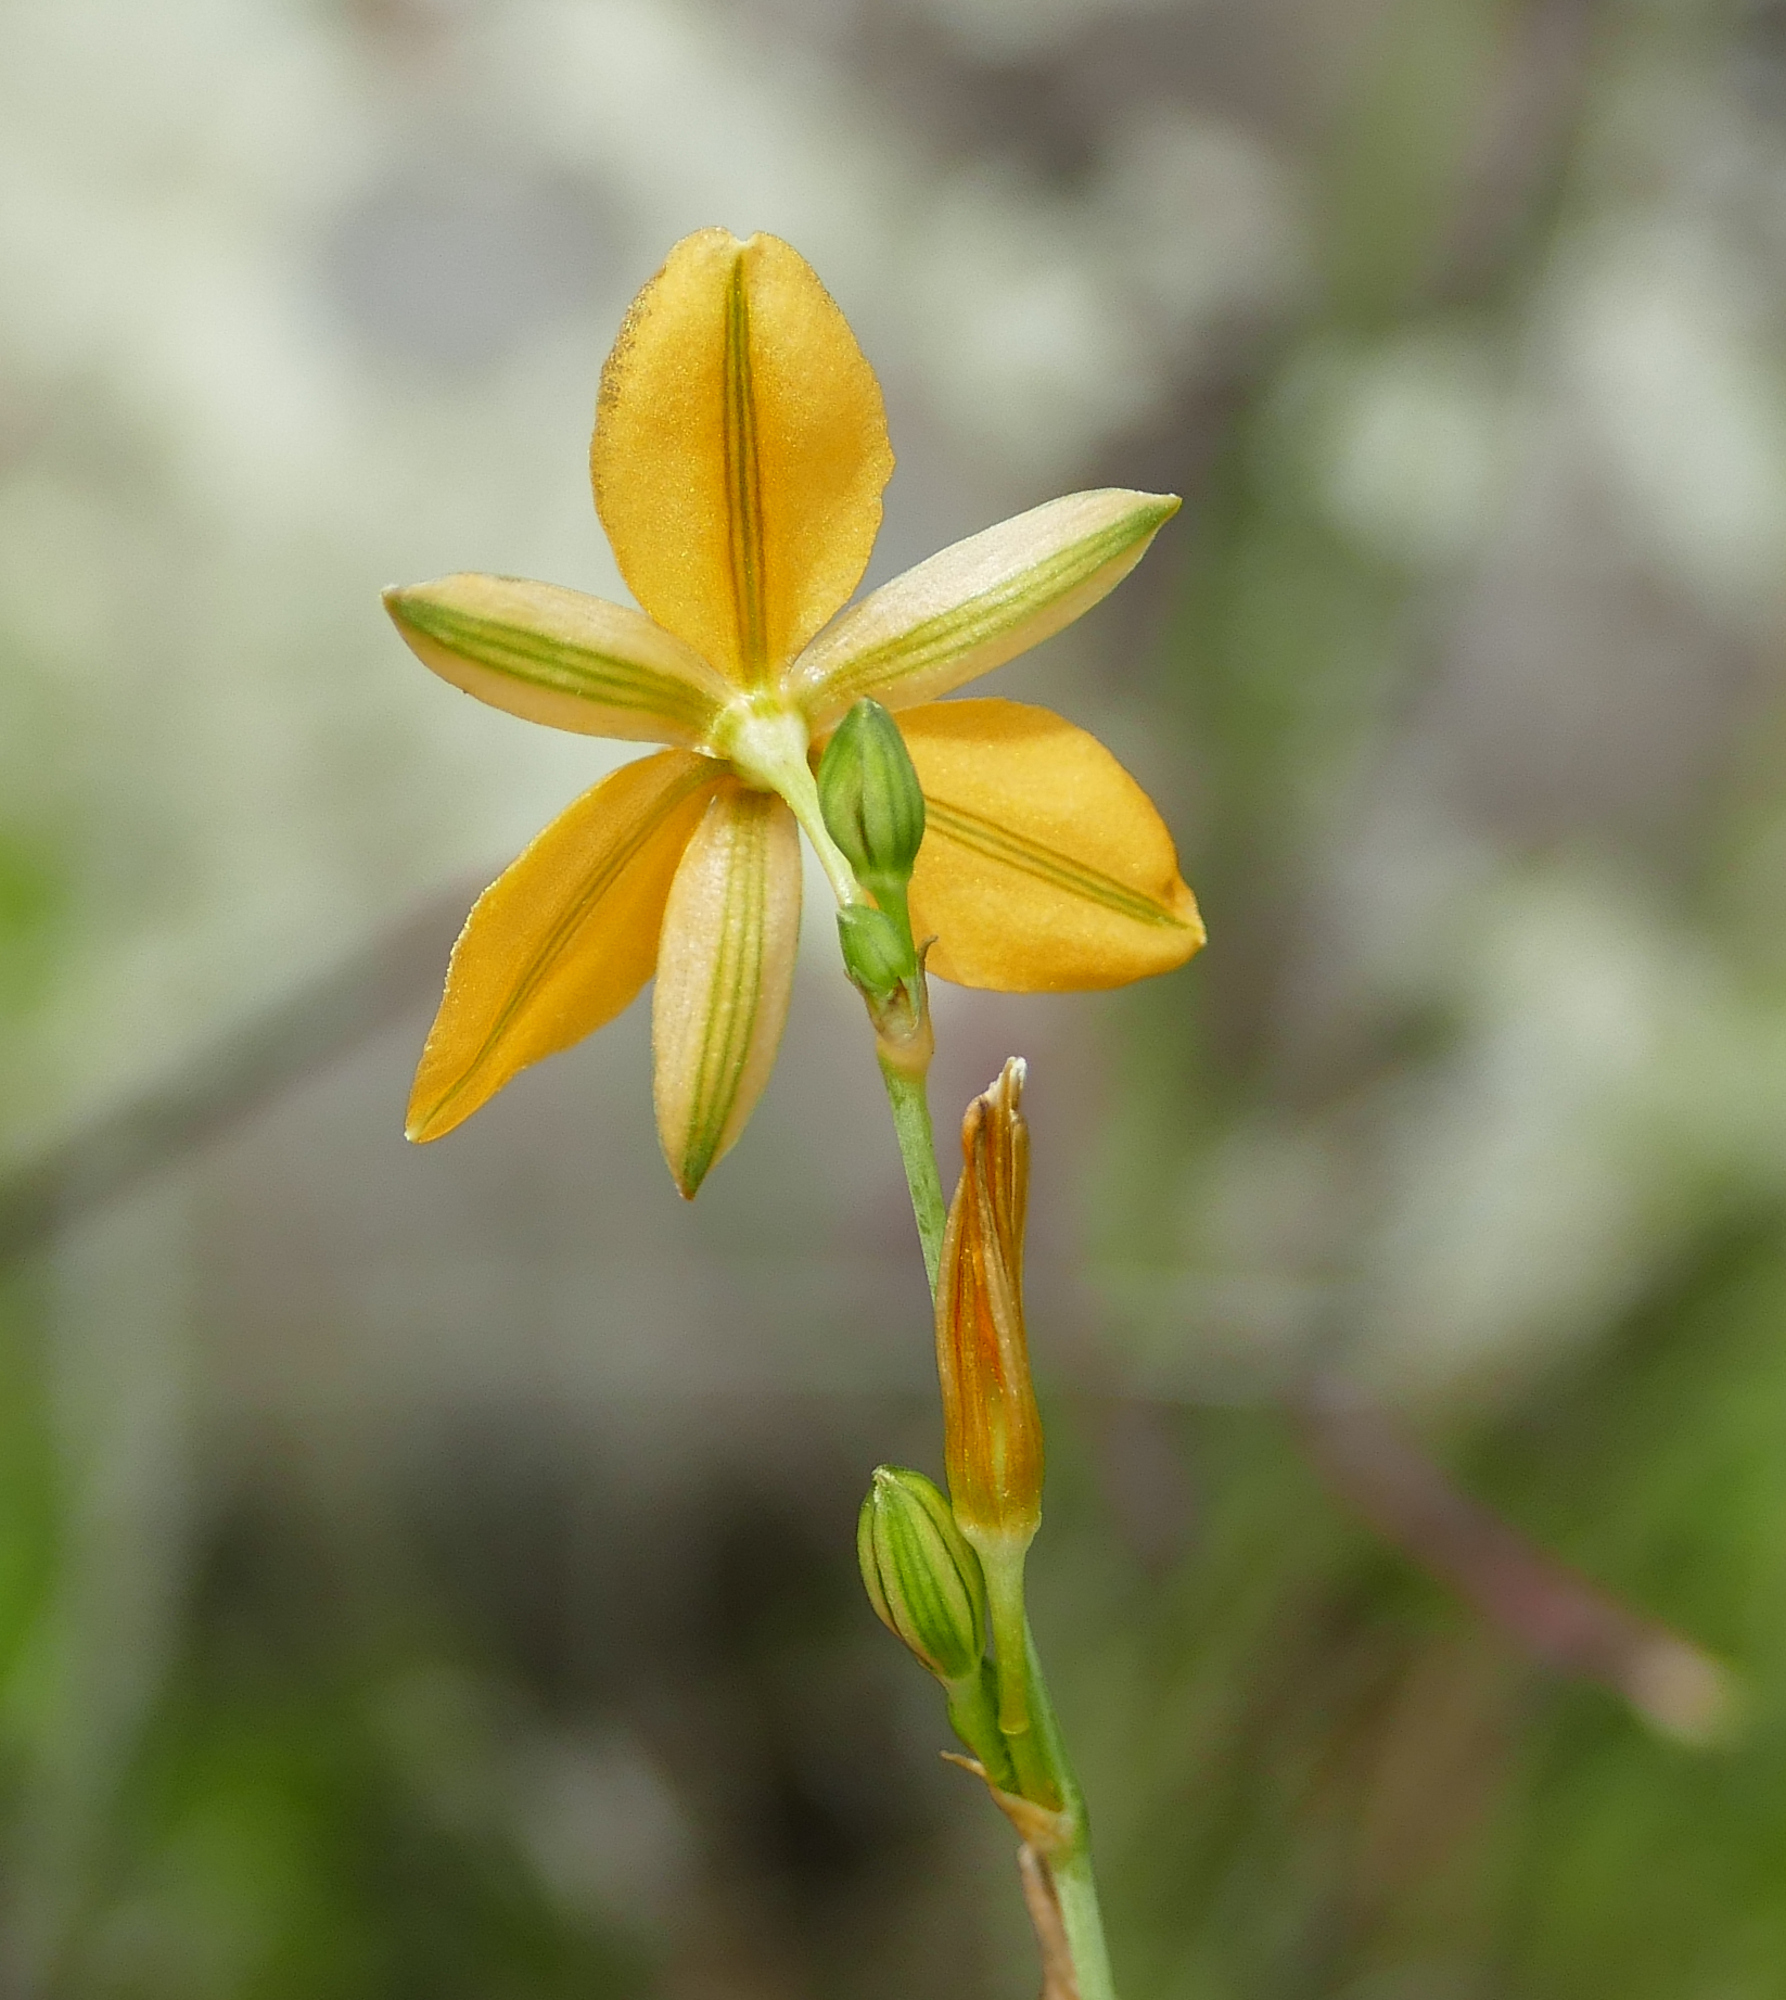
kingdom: Plantae
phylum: Tracheophyta
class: Liliopsida
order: Asparagales
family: Asparagaceae
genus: Echeandia
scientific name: Echeandia flavescens
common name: Amberlily
